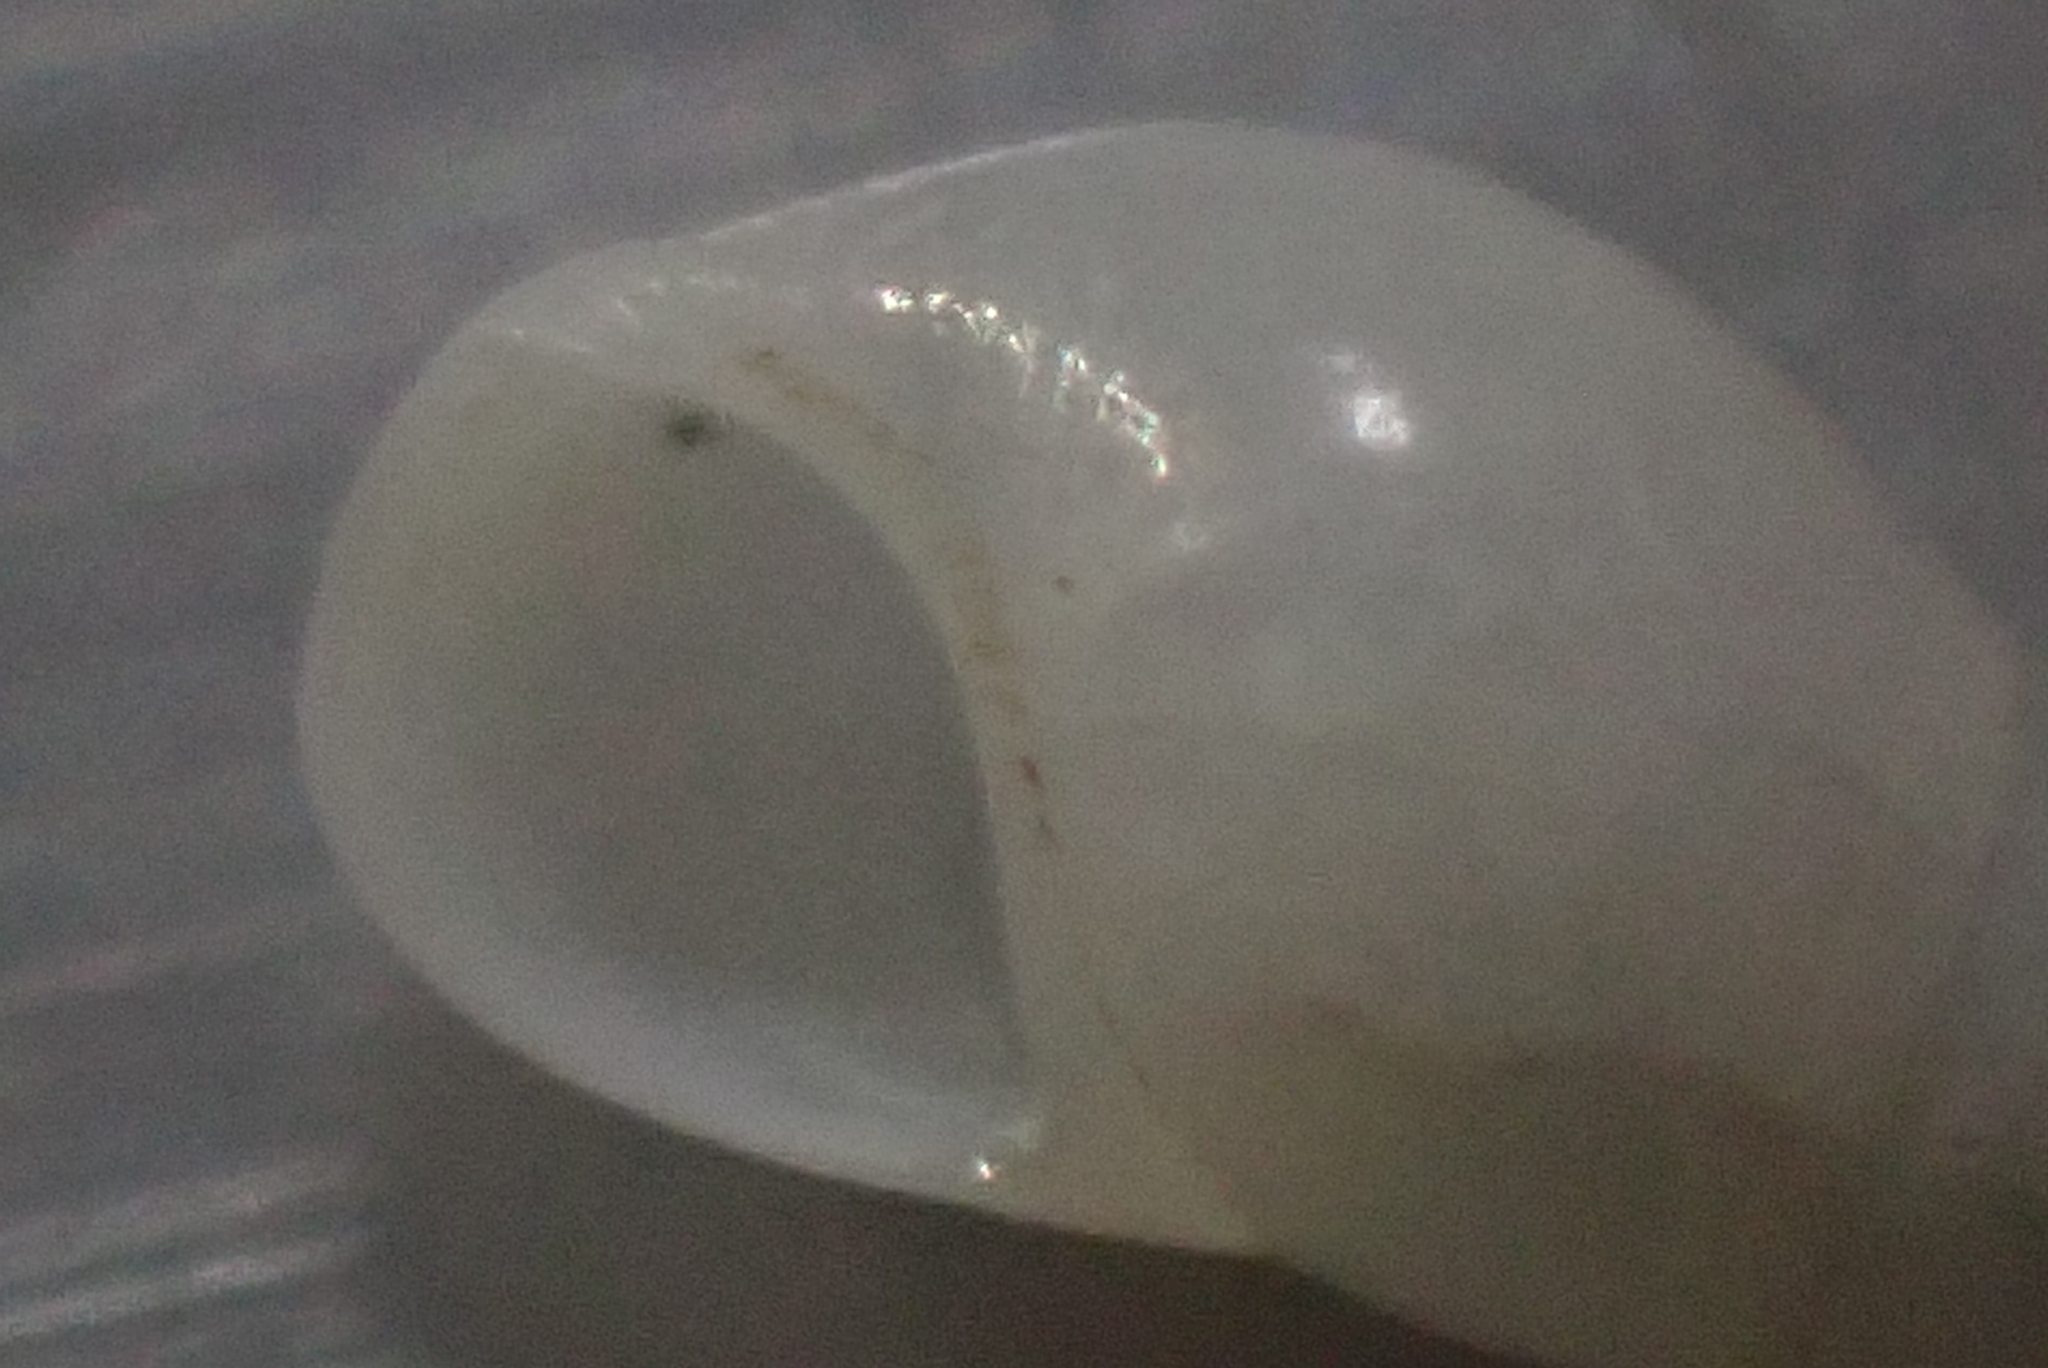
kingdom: Animalia
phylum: Mollusca
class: Gastropoda
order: Littorinimorpha
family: Iravadiidae
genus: Nozeba
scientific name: Nozeba emarginata
